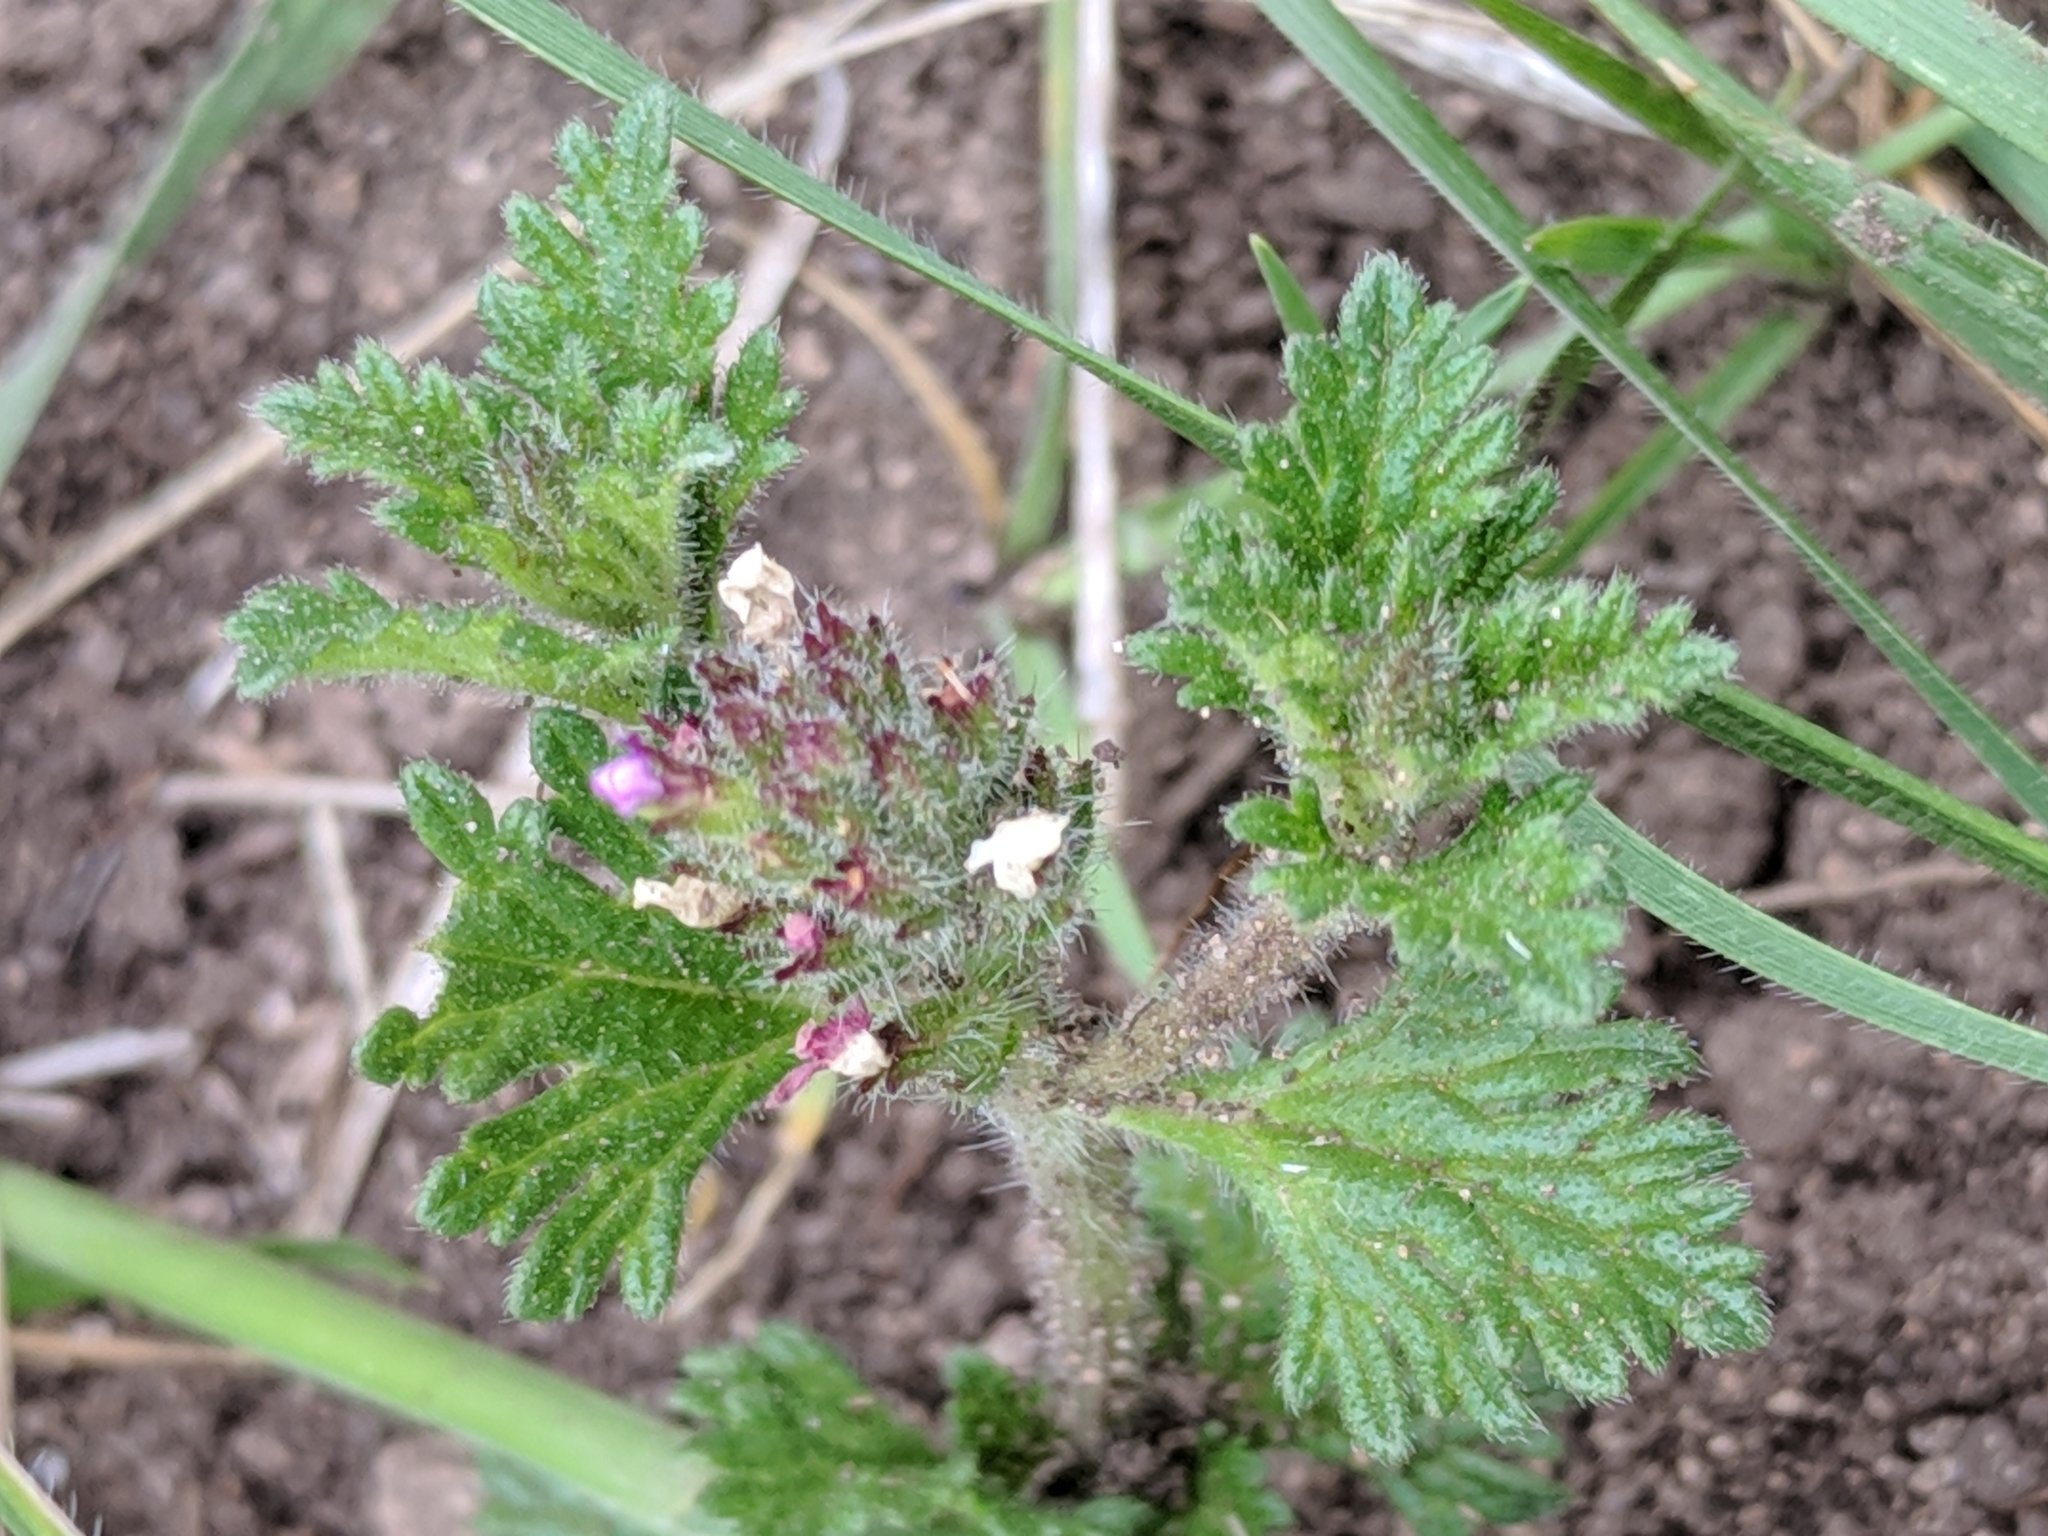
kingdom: Plantae
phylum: Tracheophyta
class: Magnoliopsida
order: Lamiales
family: Verbenaceae
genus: Verbena
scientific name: Verbena pumila
